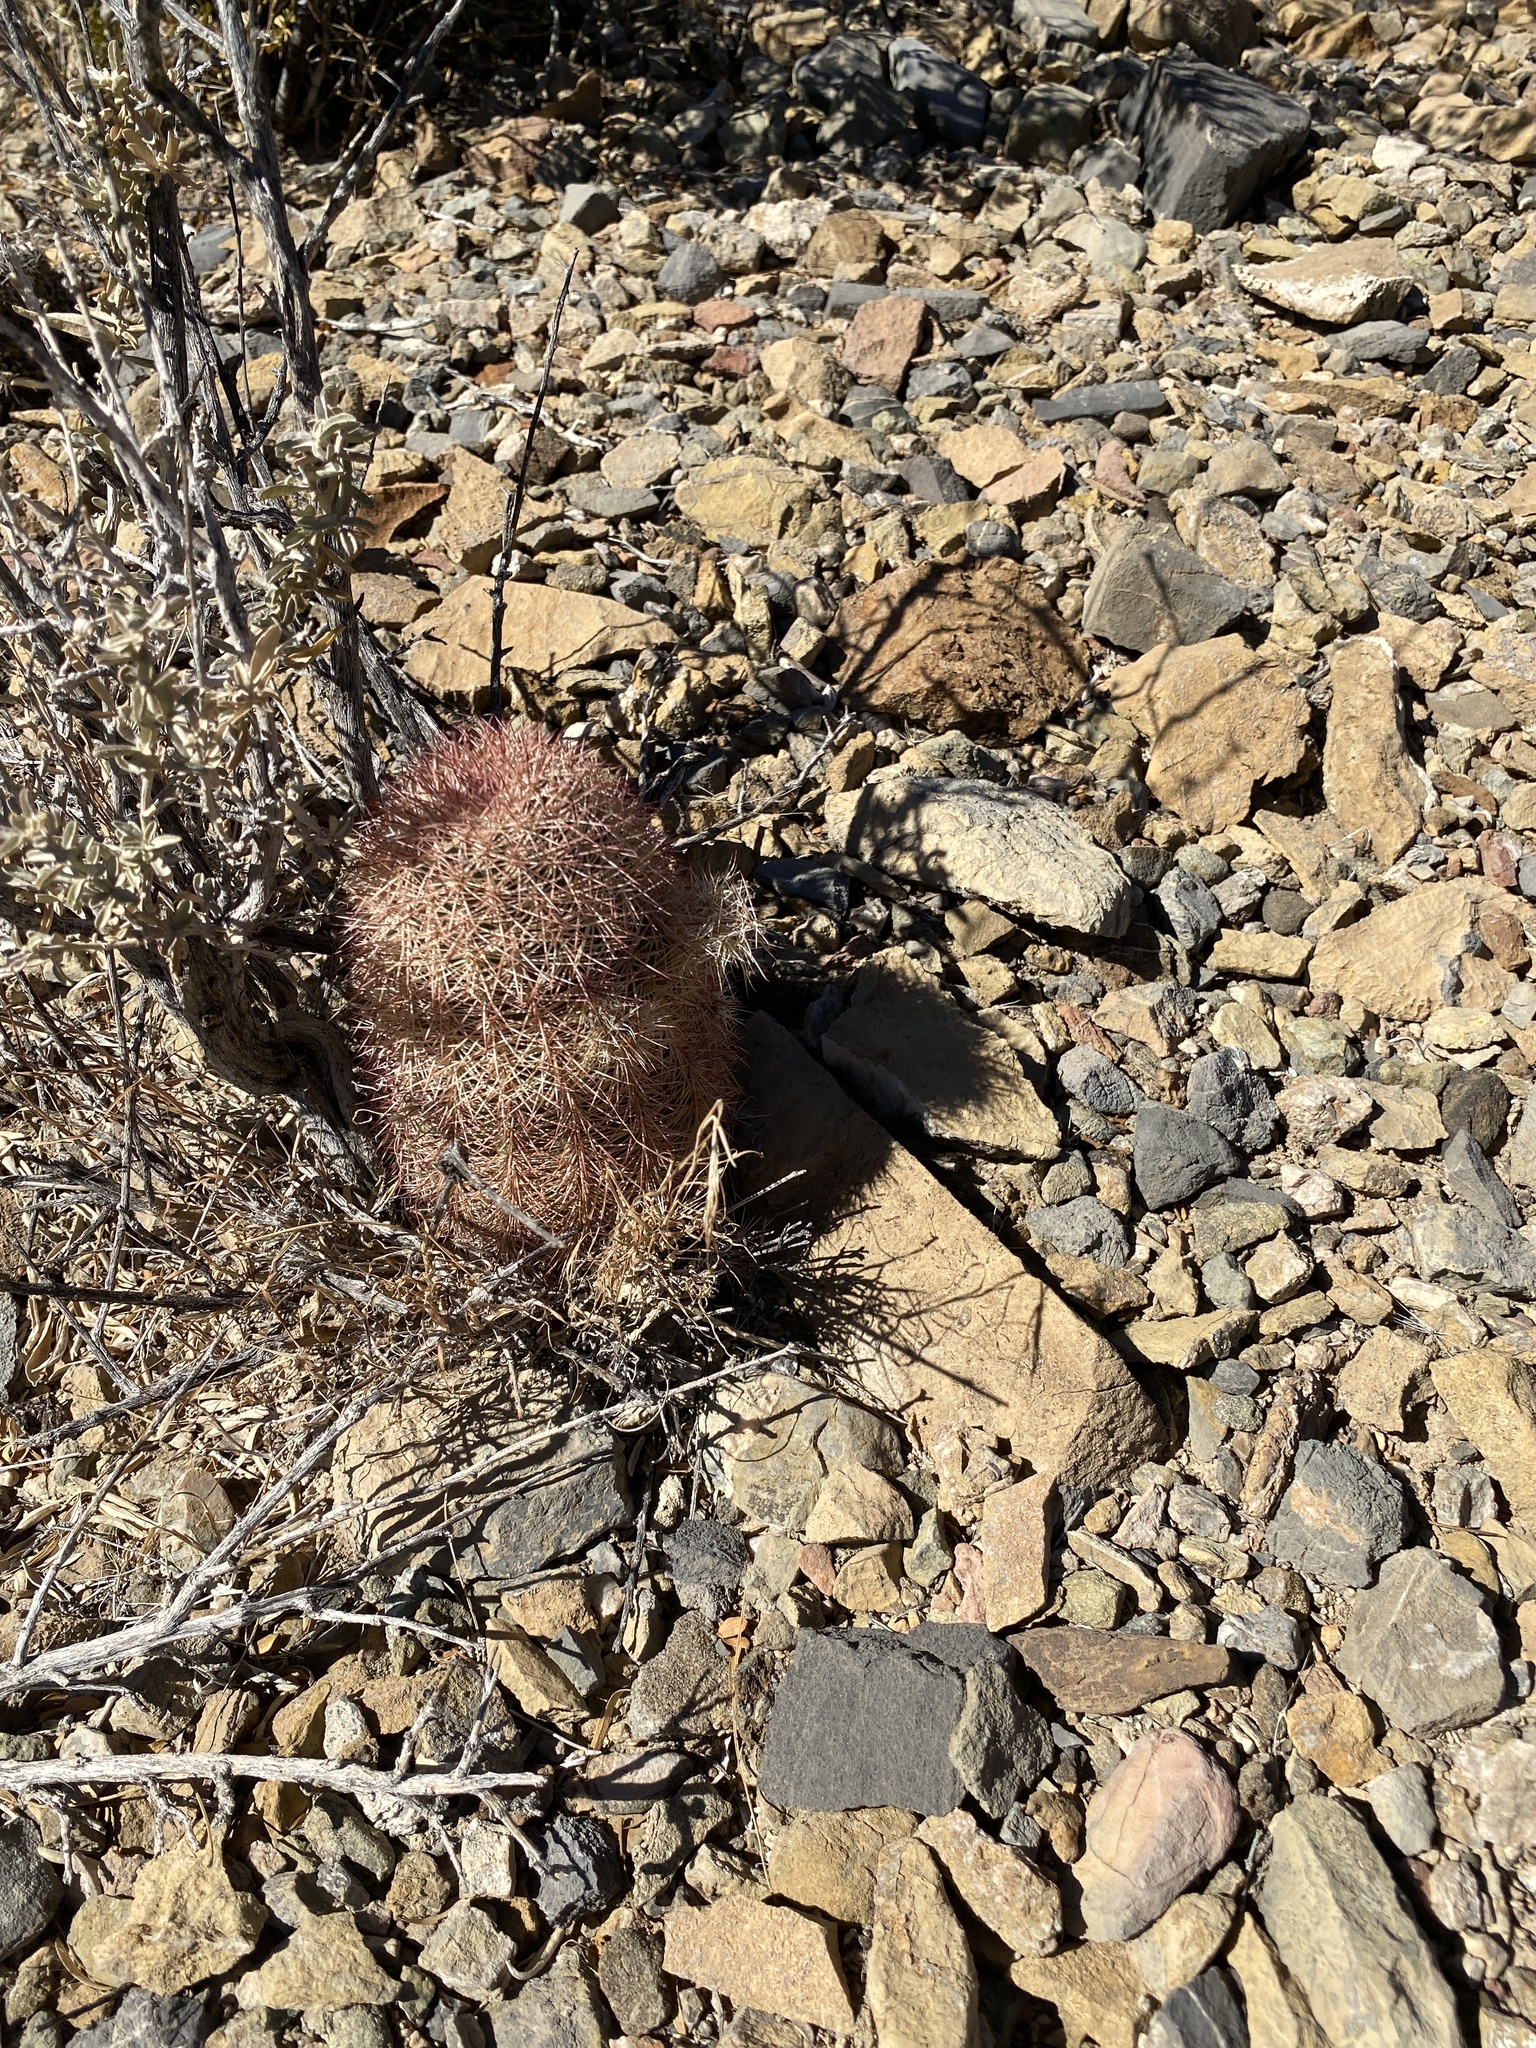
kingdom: Plantae
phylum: Tracheophyta
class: Magnoliopsida
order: Caryophyllales
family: Cactaceae
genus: Echinocereus
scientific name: Echinocereus dasyacanthus
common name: Spiny hedgehog cactus
